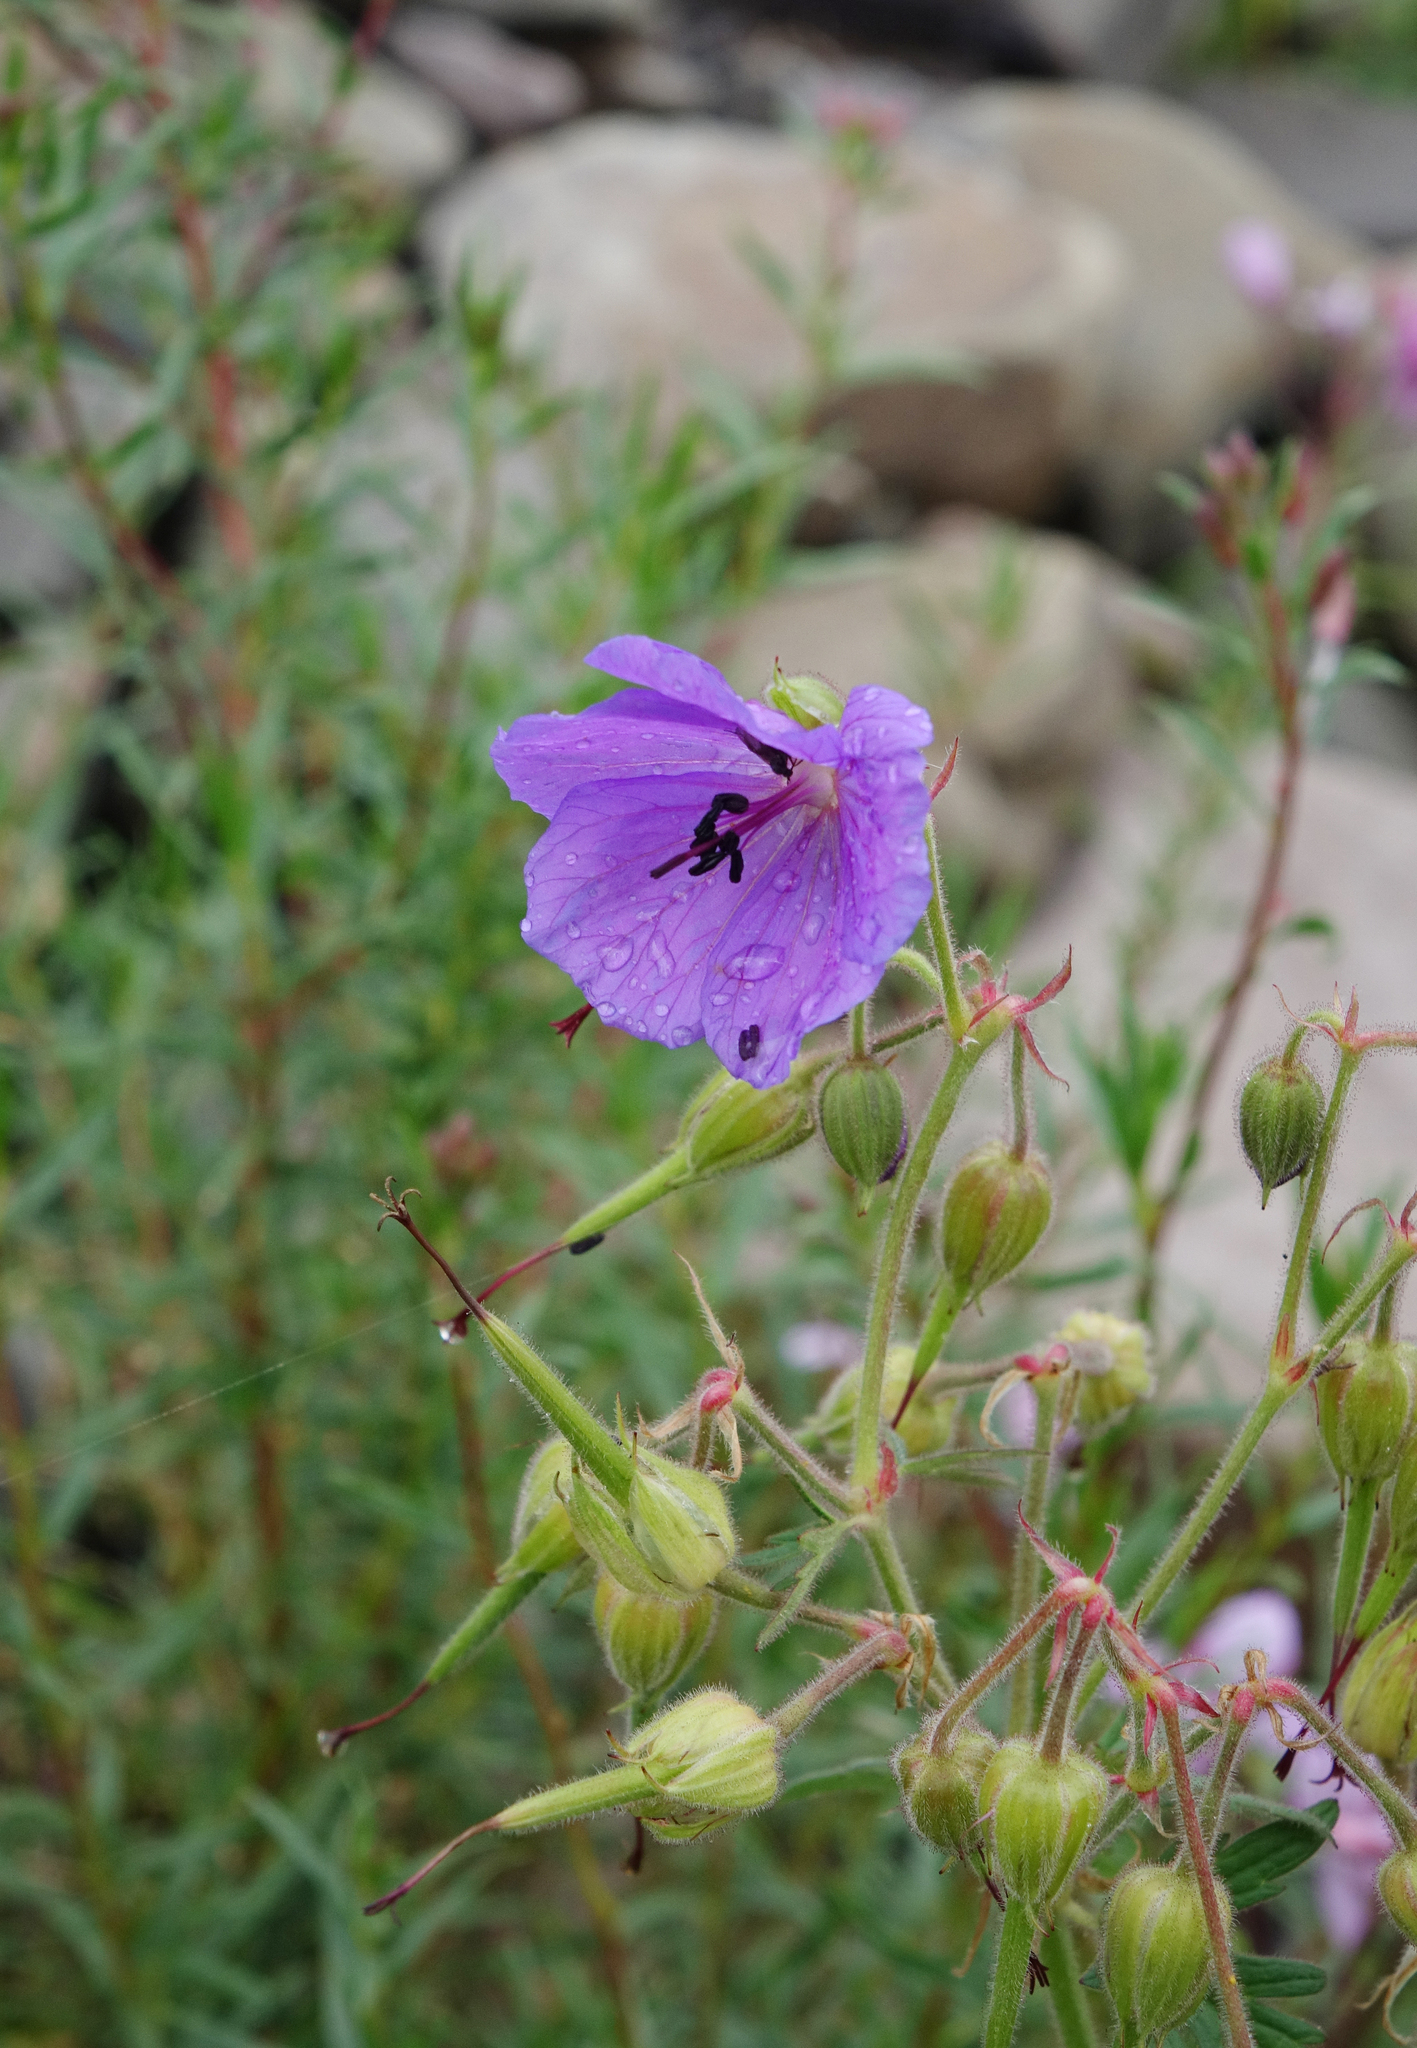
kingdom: Plantae
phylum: Tracheophyta
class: Magnoliopsida
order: Geraniales
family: Geraniaceae
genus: Geranium
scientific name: Geranium ruprechtii
